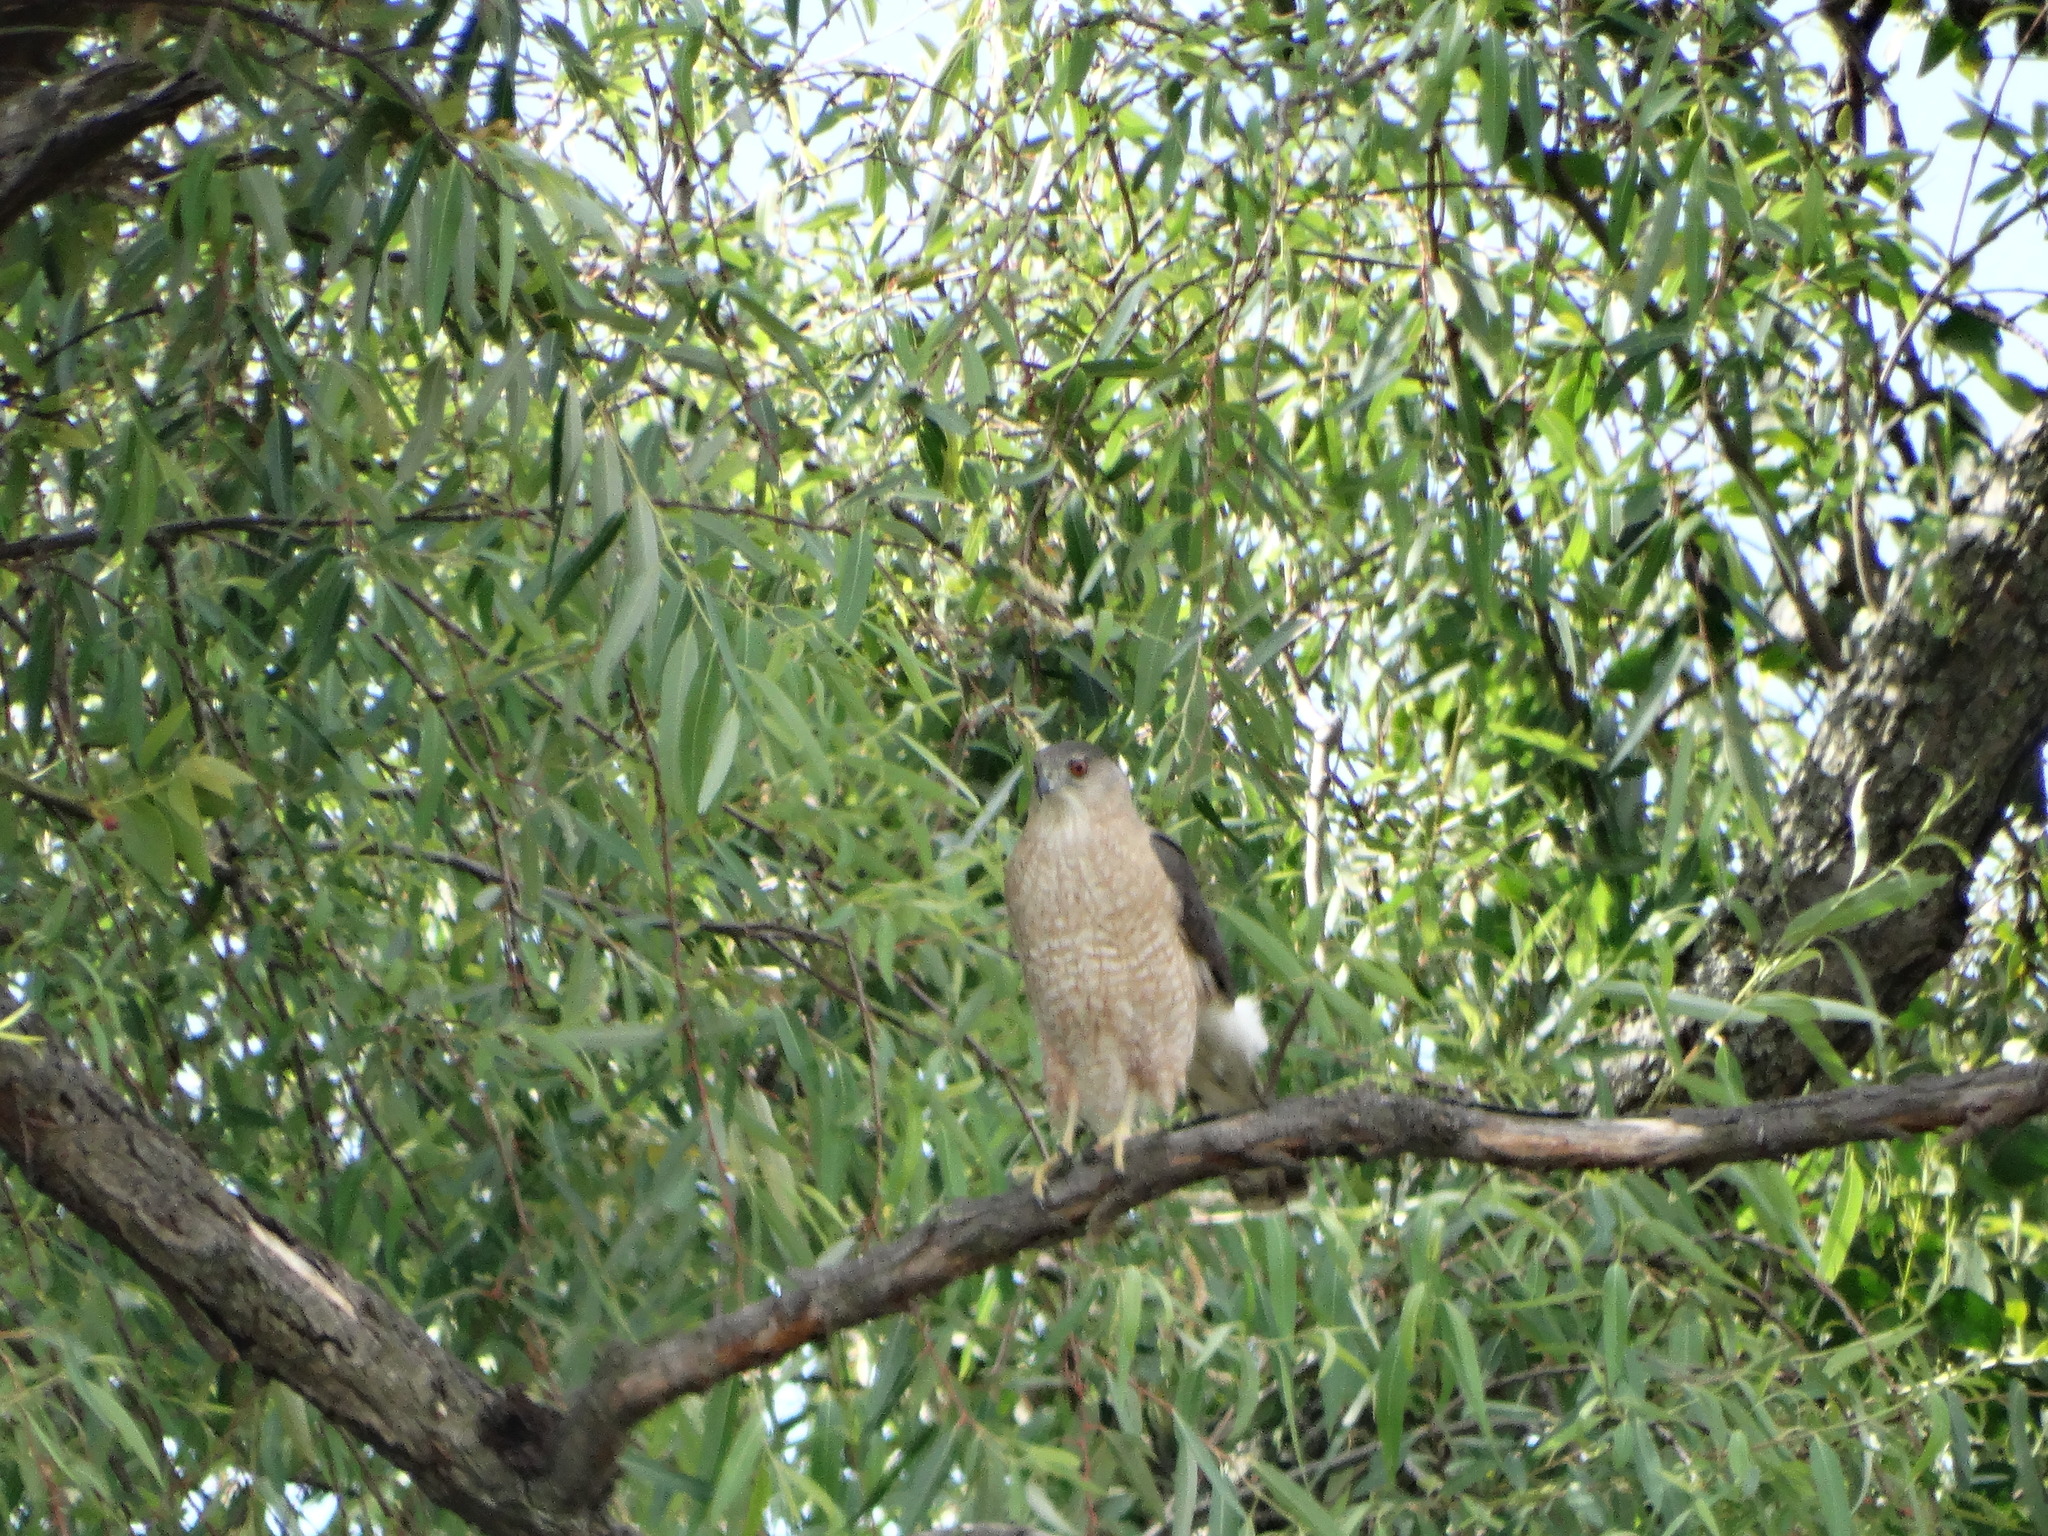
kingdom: Animalia
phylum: Chordata
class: Aves
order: Accipitriformes
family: Accipitridae
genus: Accipiter
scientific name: Accipiter cooperii
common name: Cooper's hawk
